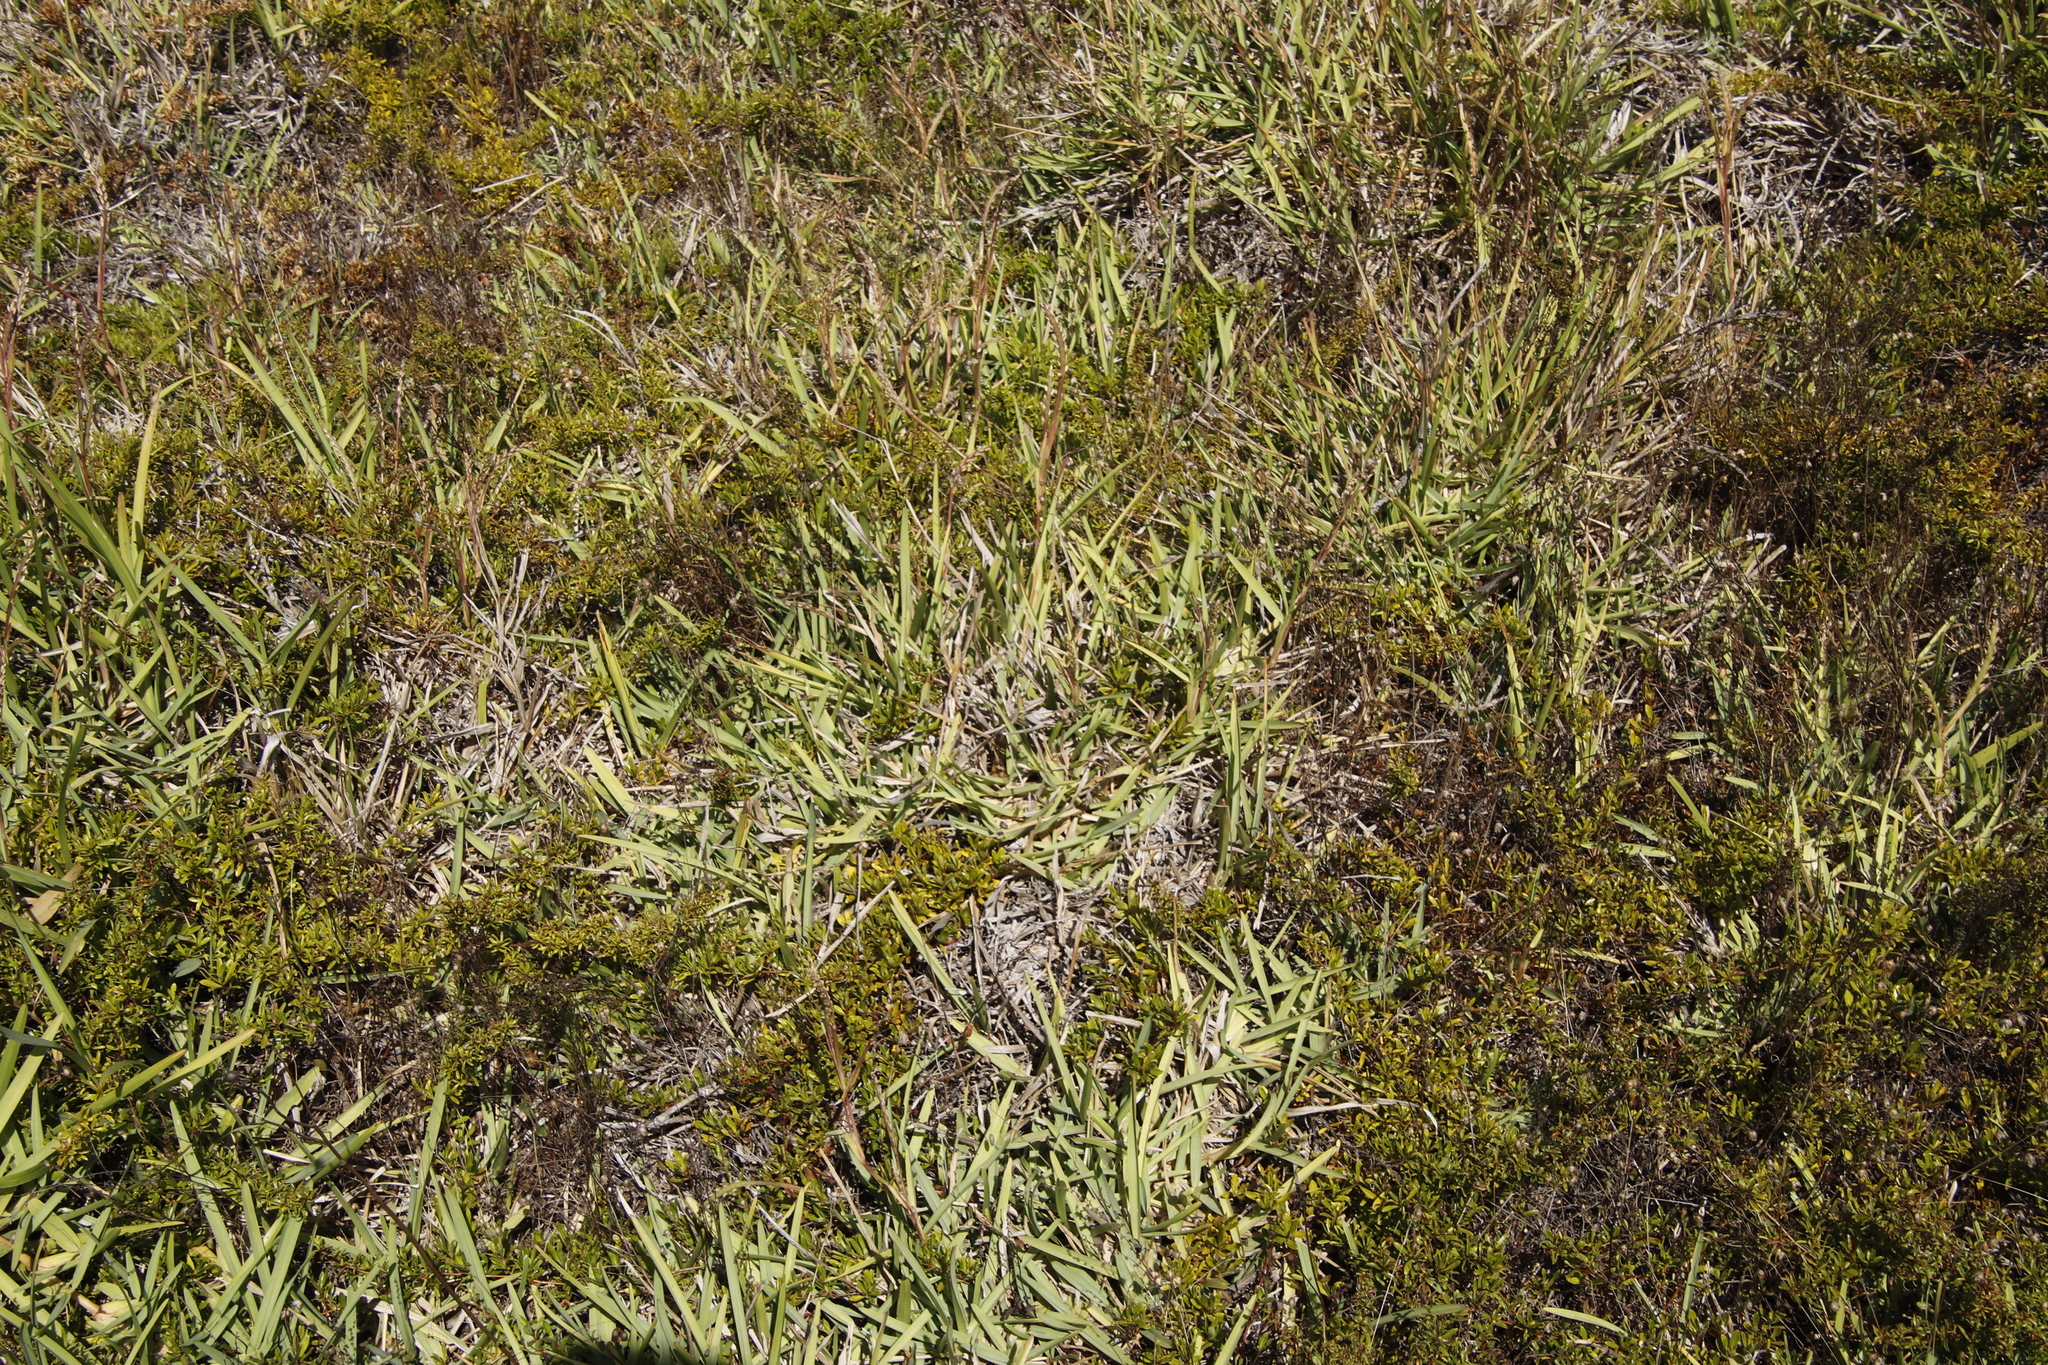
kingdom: Plantae
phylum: Tracheophyta
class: Liliopsida
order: Poales
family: Poaceae
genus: Stenotaphrum
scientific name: Stenotaphrum secundatum
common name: St. augustine grass
